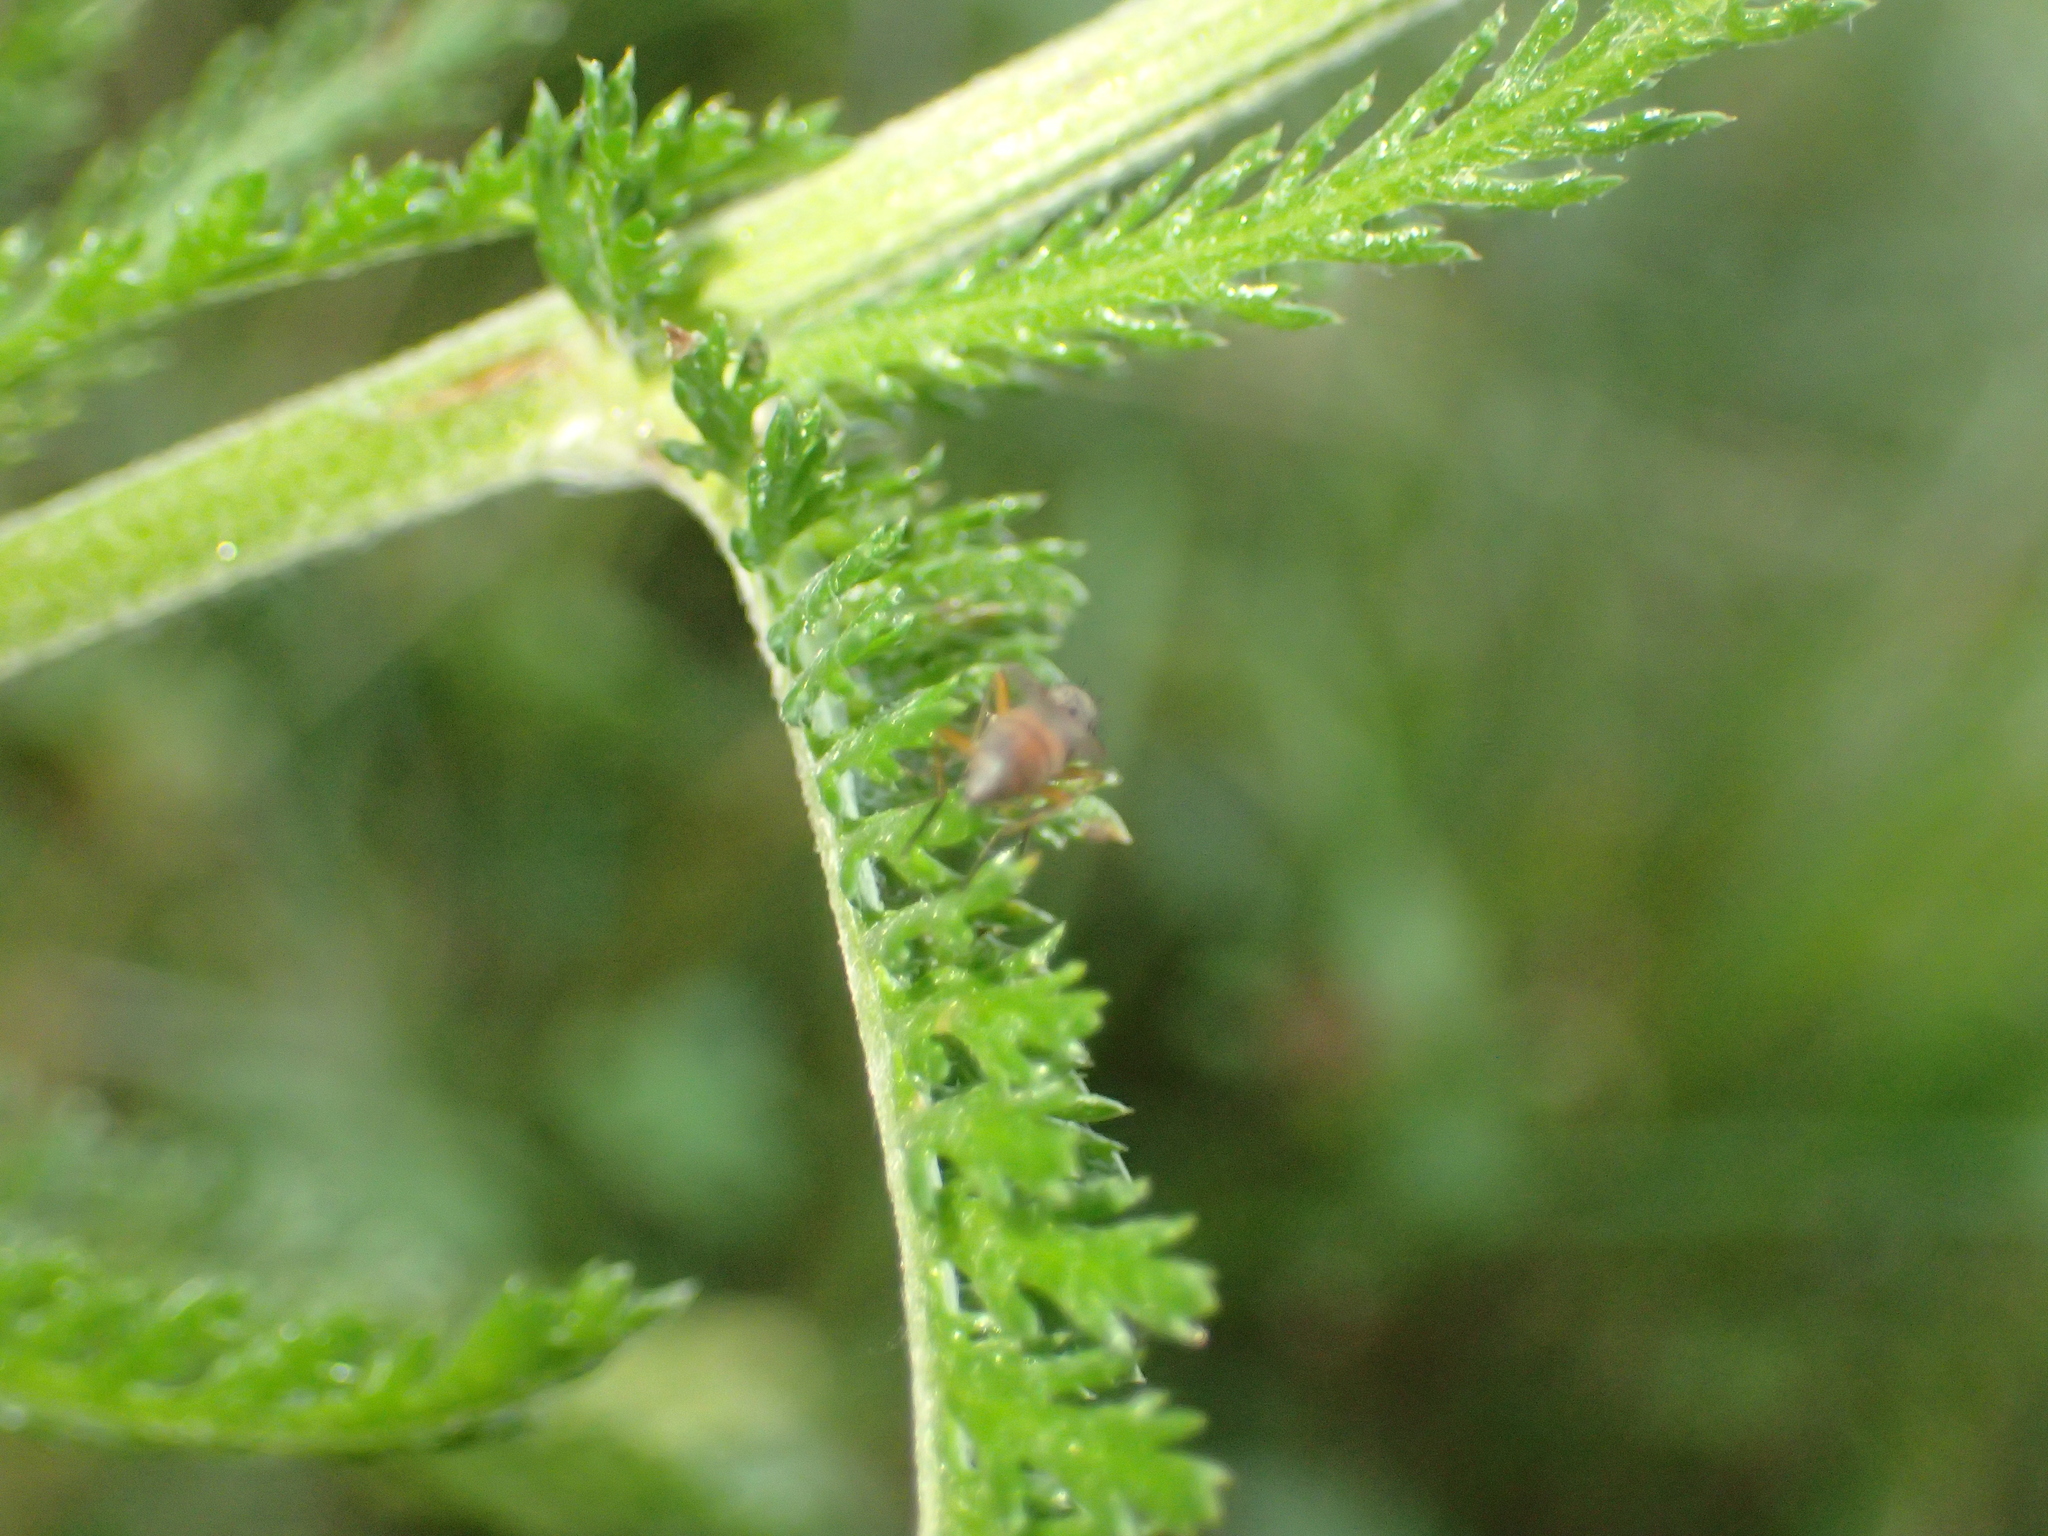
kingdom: Plantae
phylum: Tracheophyta
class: Magnoliopsida
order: Asterales
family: Asteraceae
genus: Achillea
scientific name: Achillea
